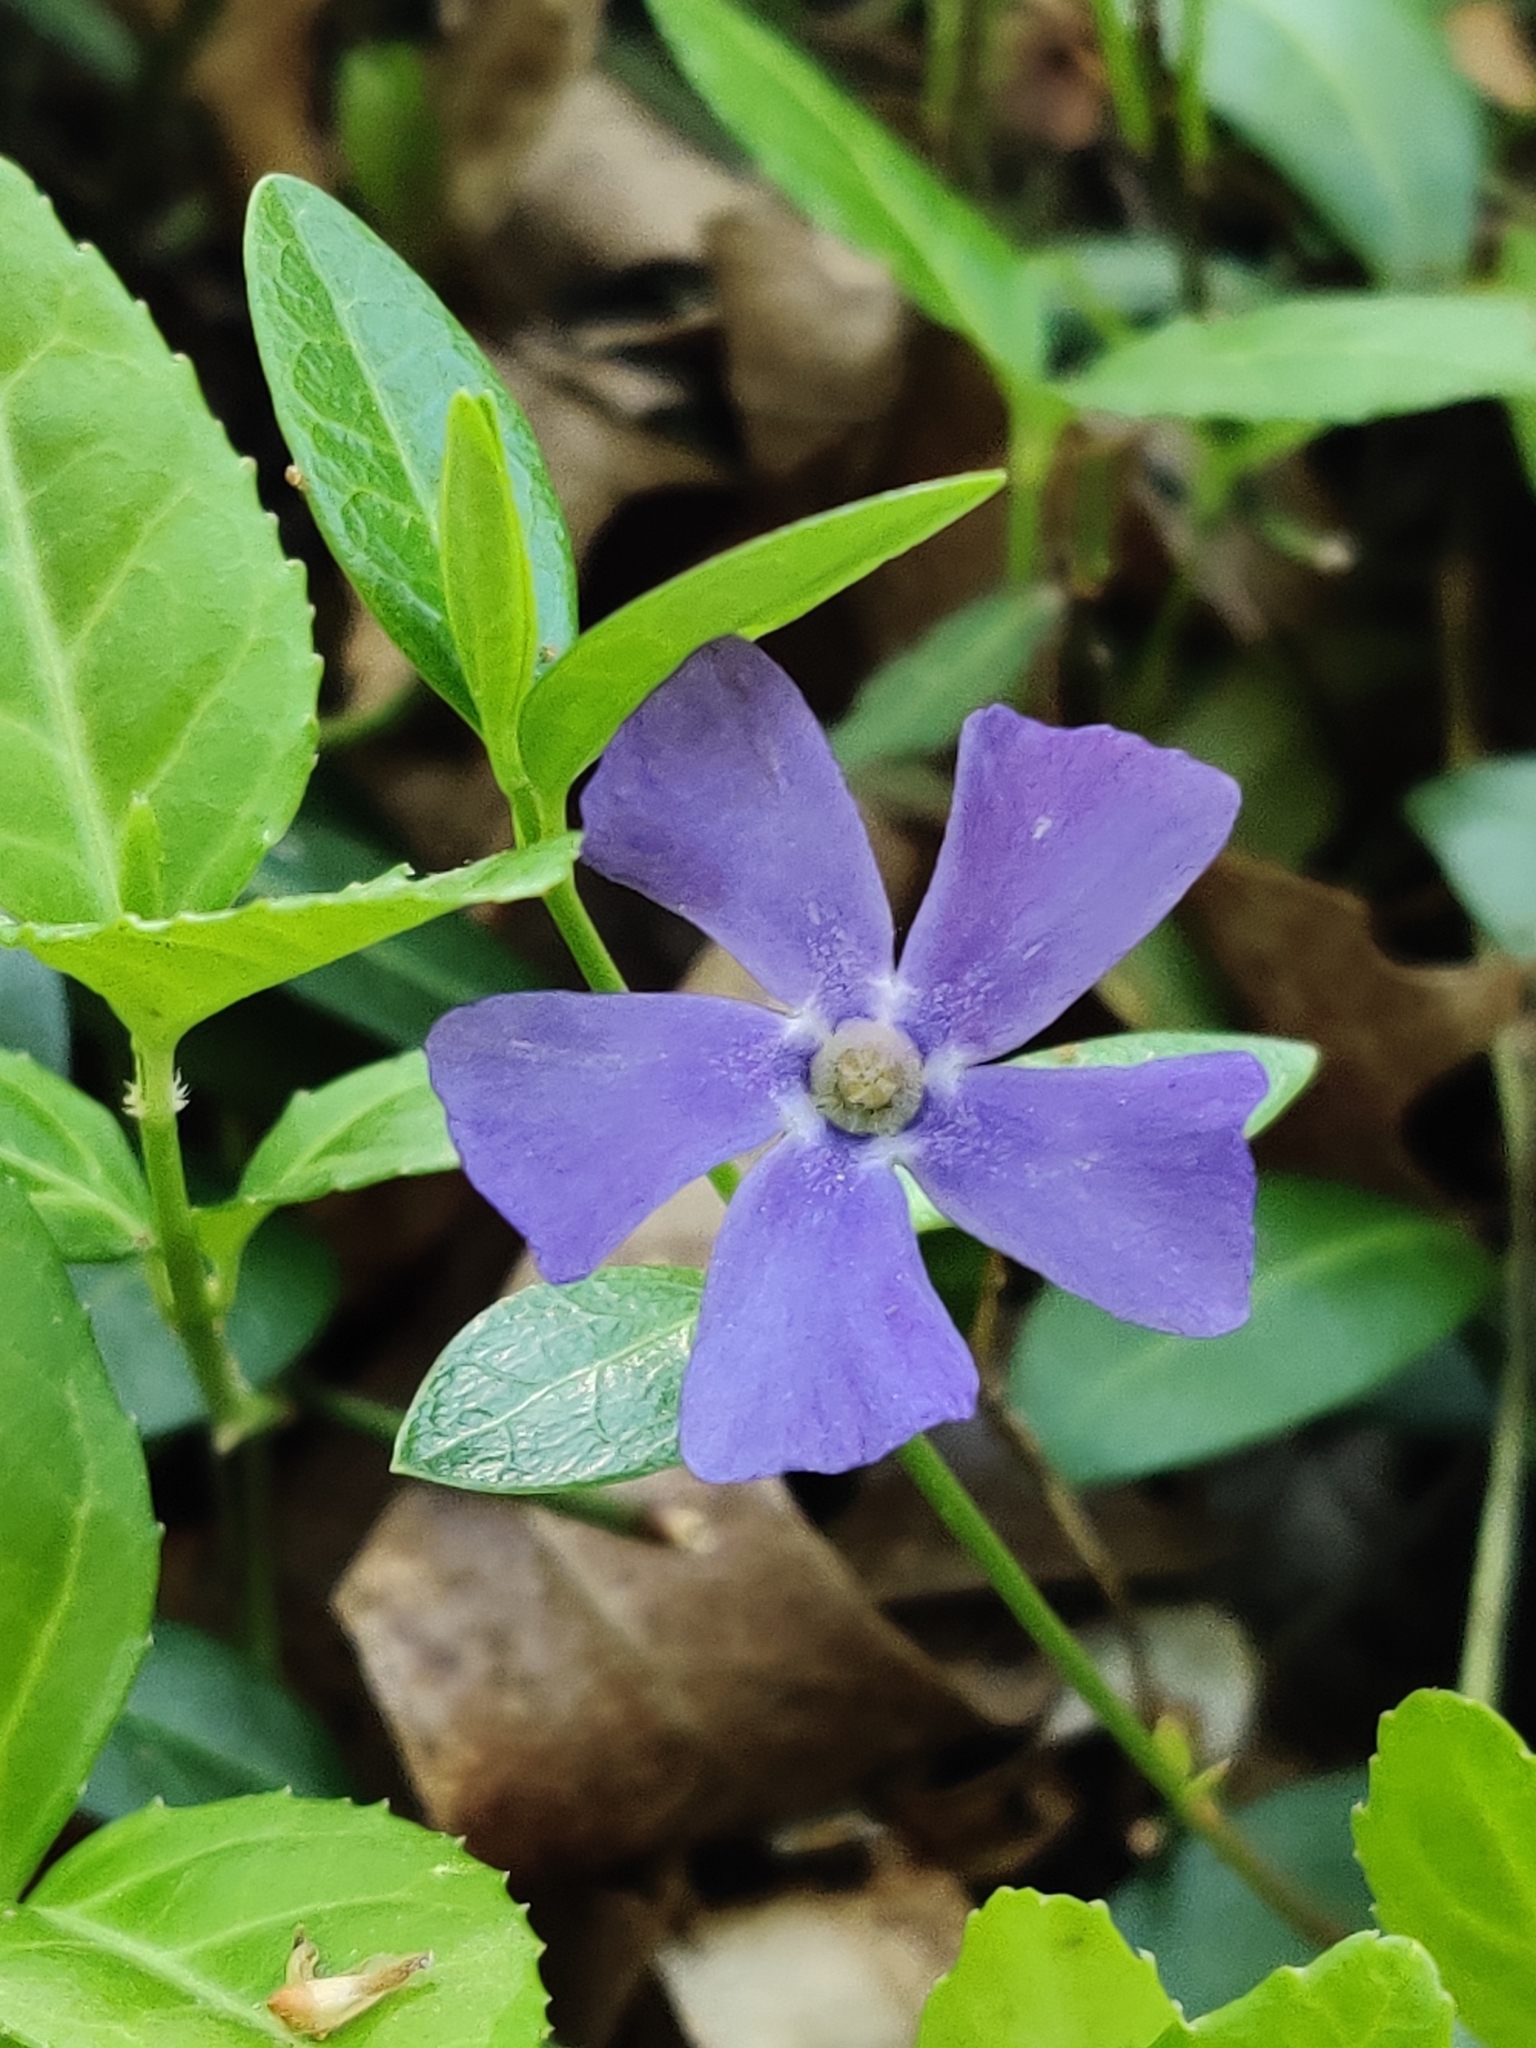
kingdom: Plantae
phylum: Tracheophyta
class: Magnoliopsida
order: Gentianales
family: Apocynaceae
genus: Vinca
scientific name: Vinca minor
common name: Lesser periwinkle
